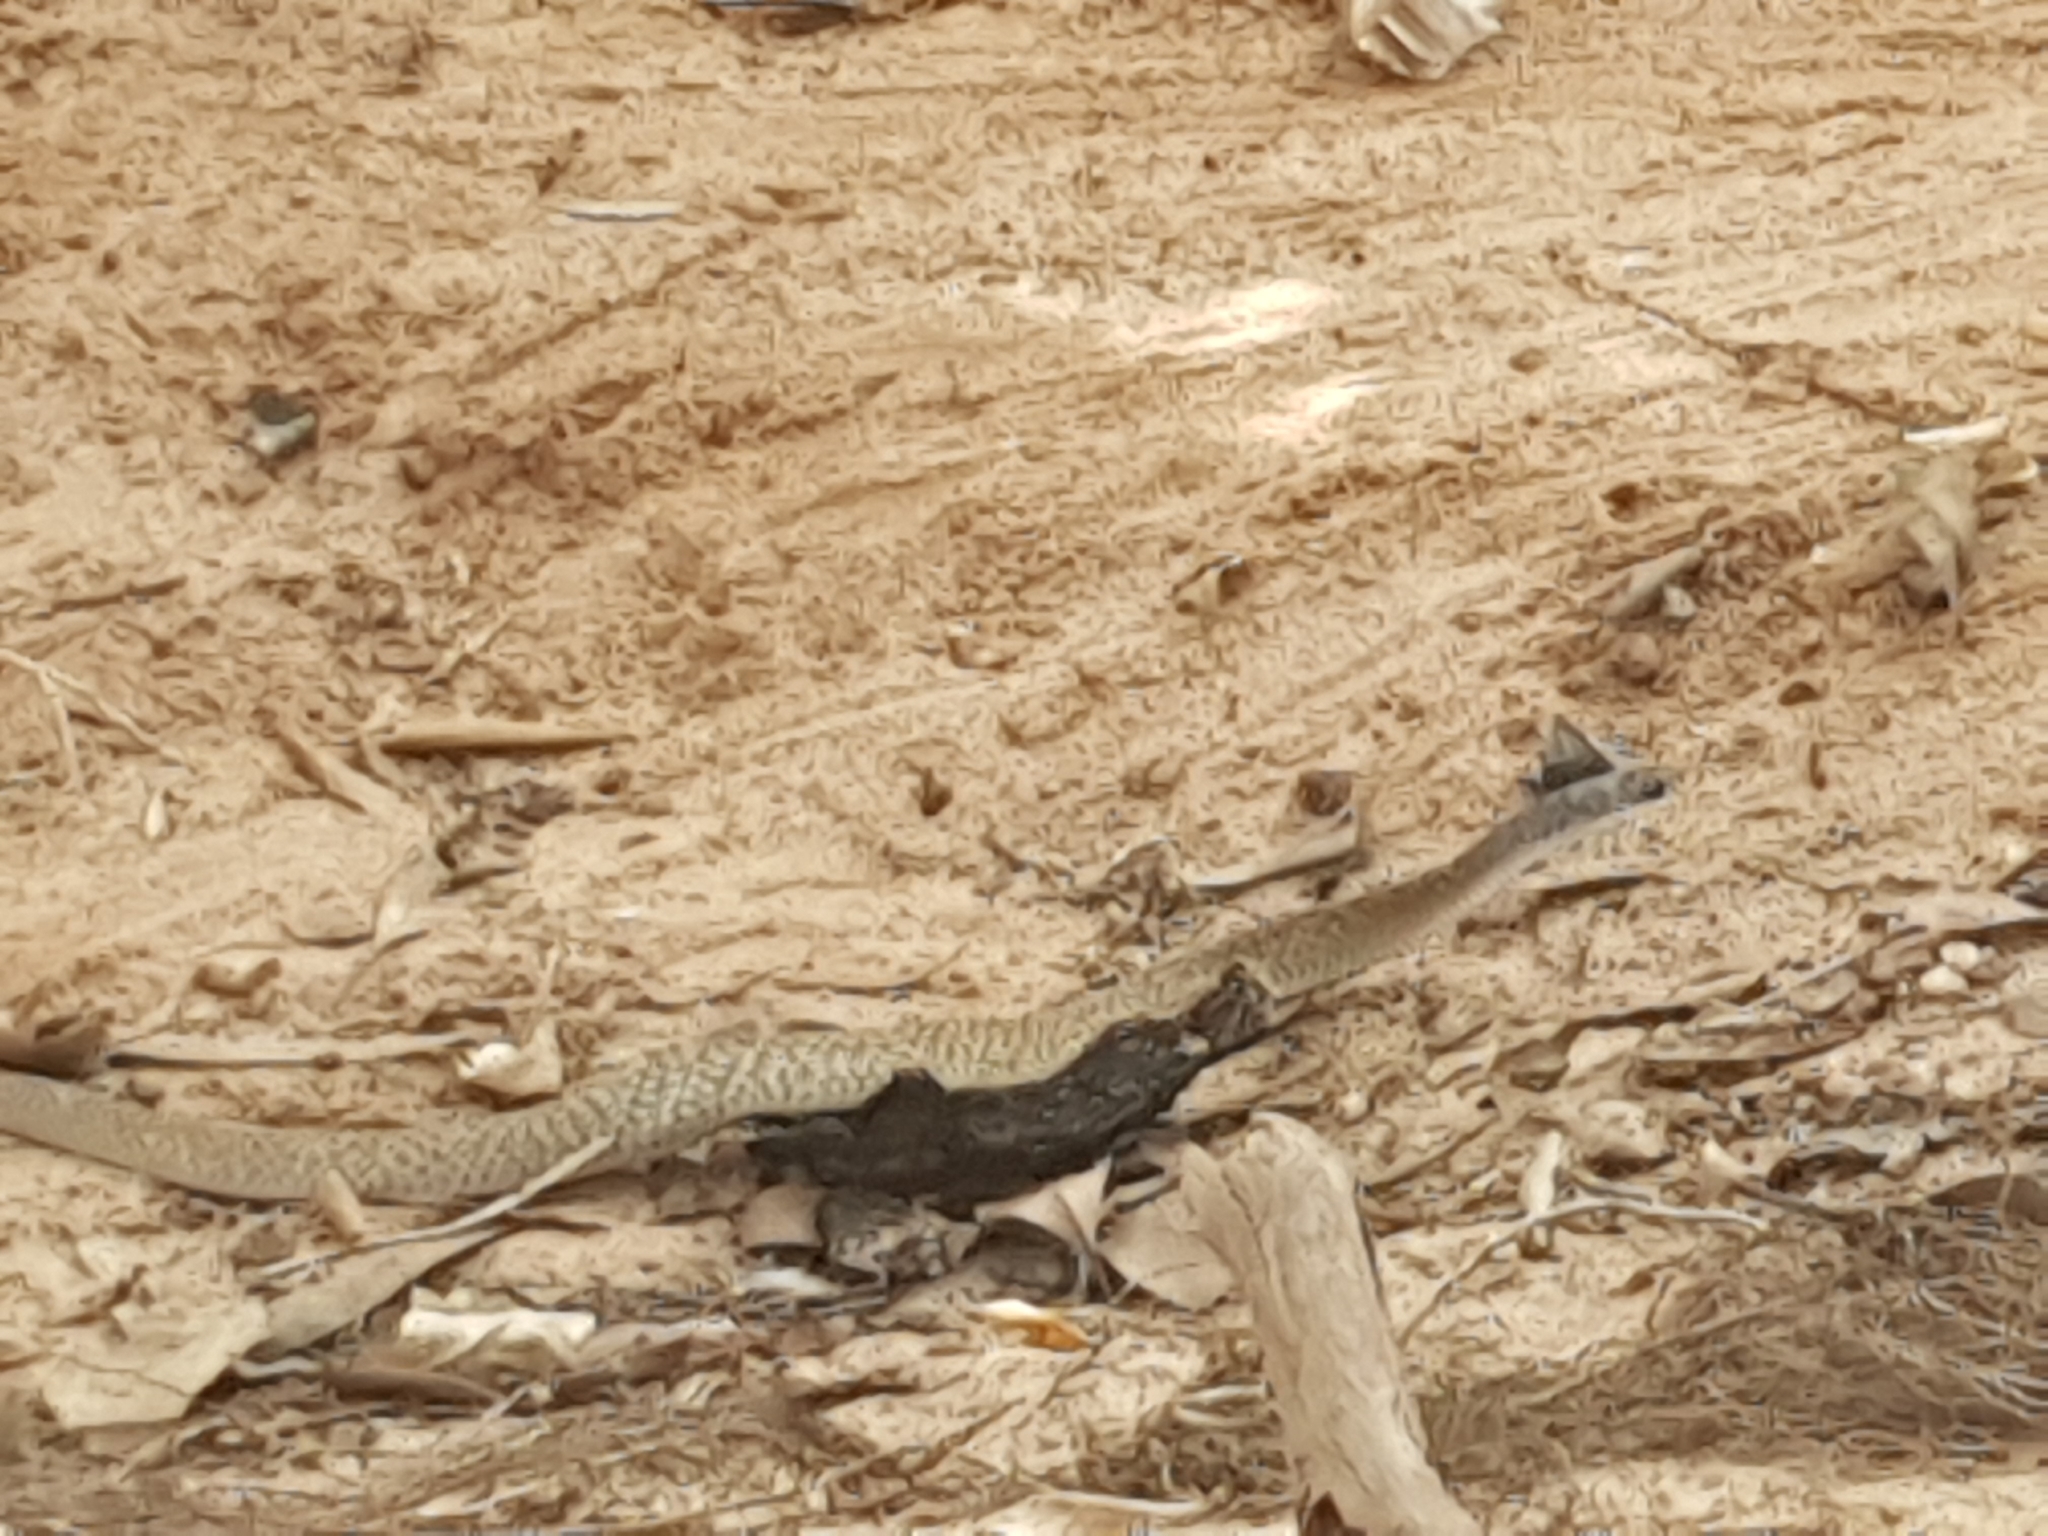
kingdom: Animalia
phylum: Chordata
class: Squamata
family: Colubridae
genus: Tropidonophis
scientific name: Tropidonophis mairii
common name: Common keelback
